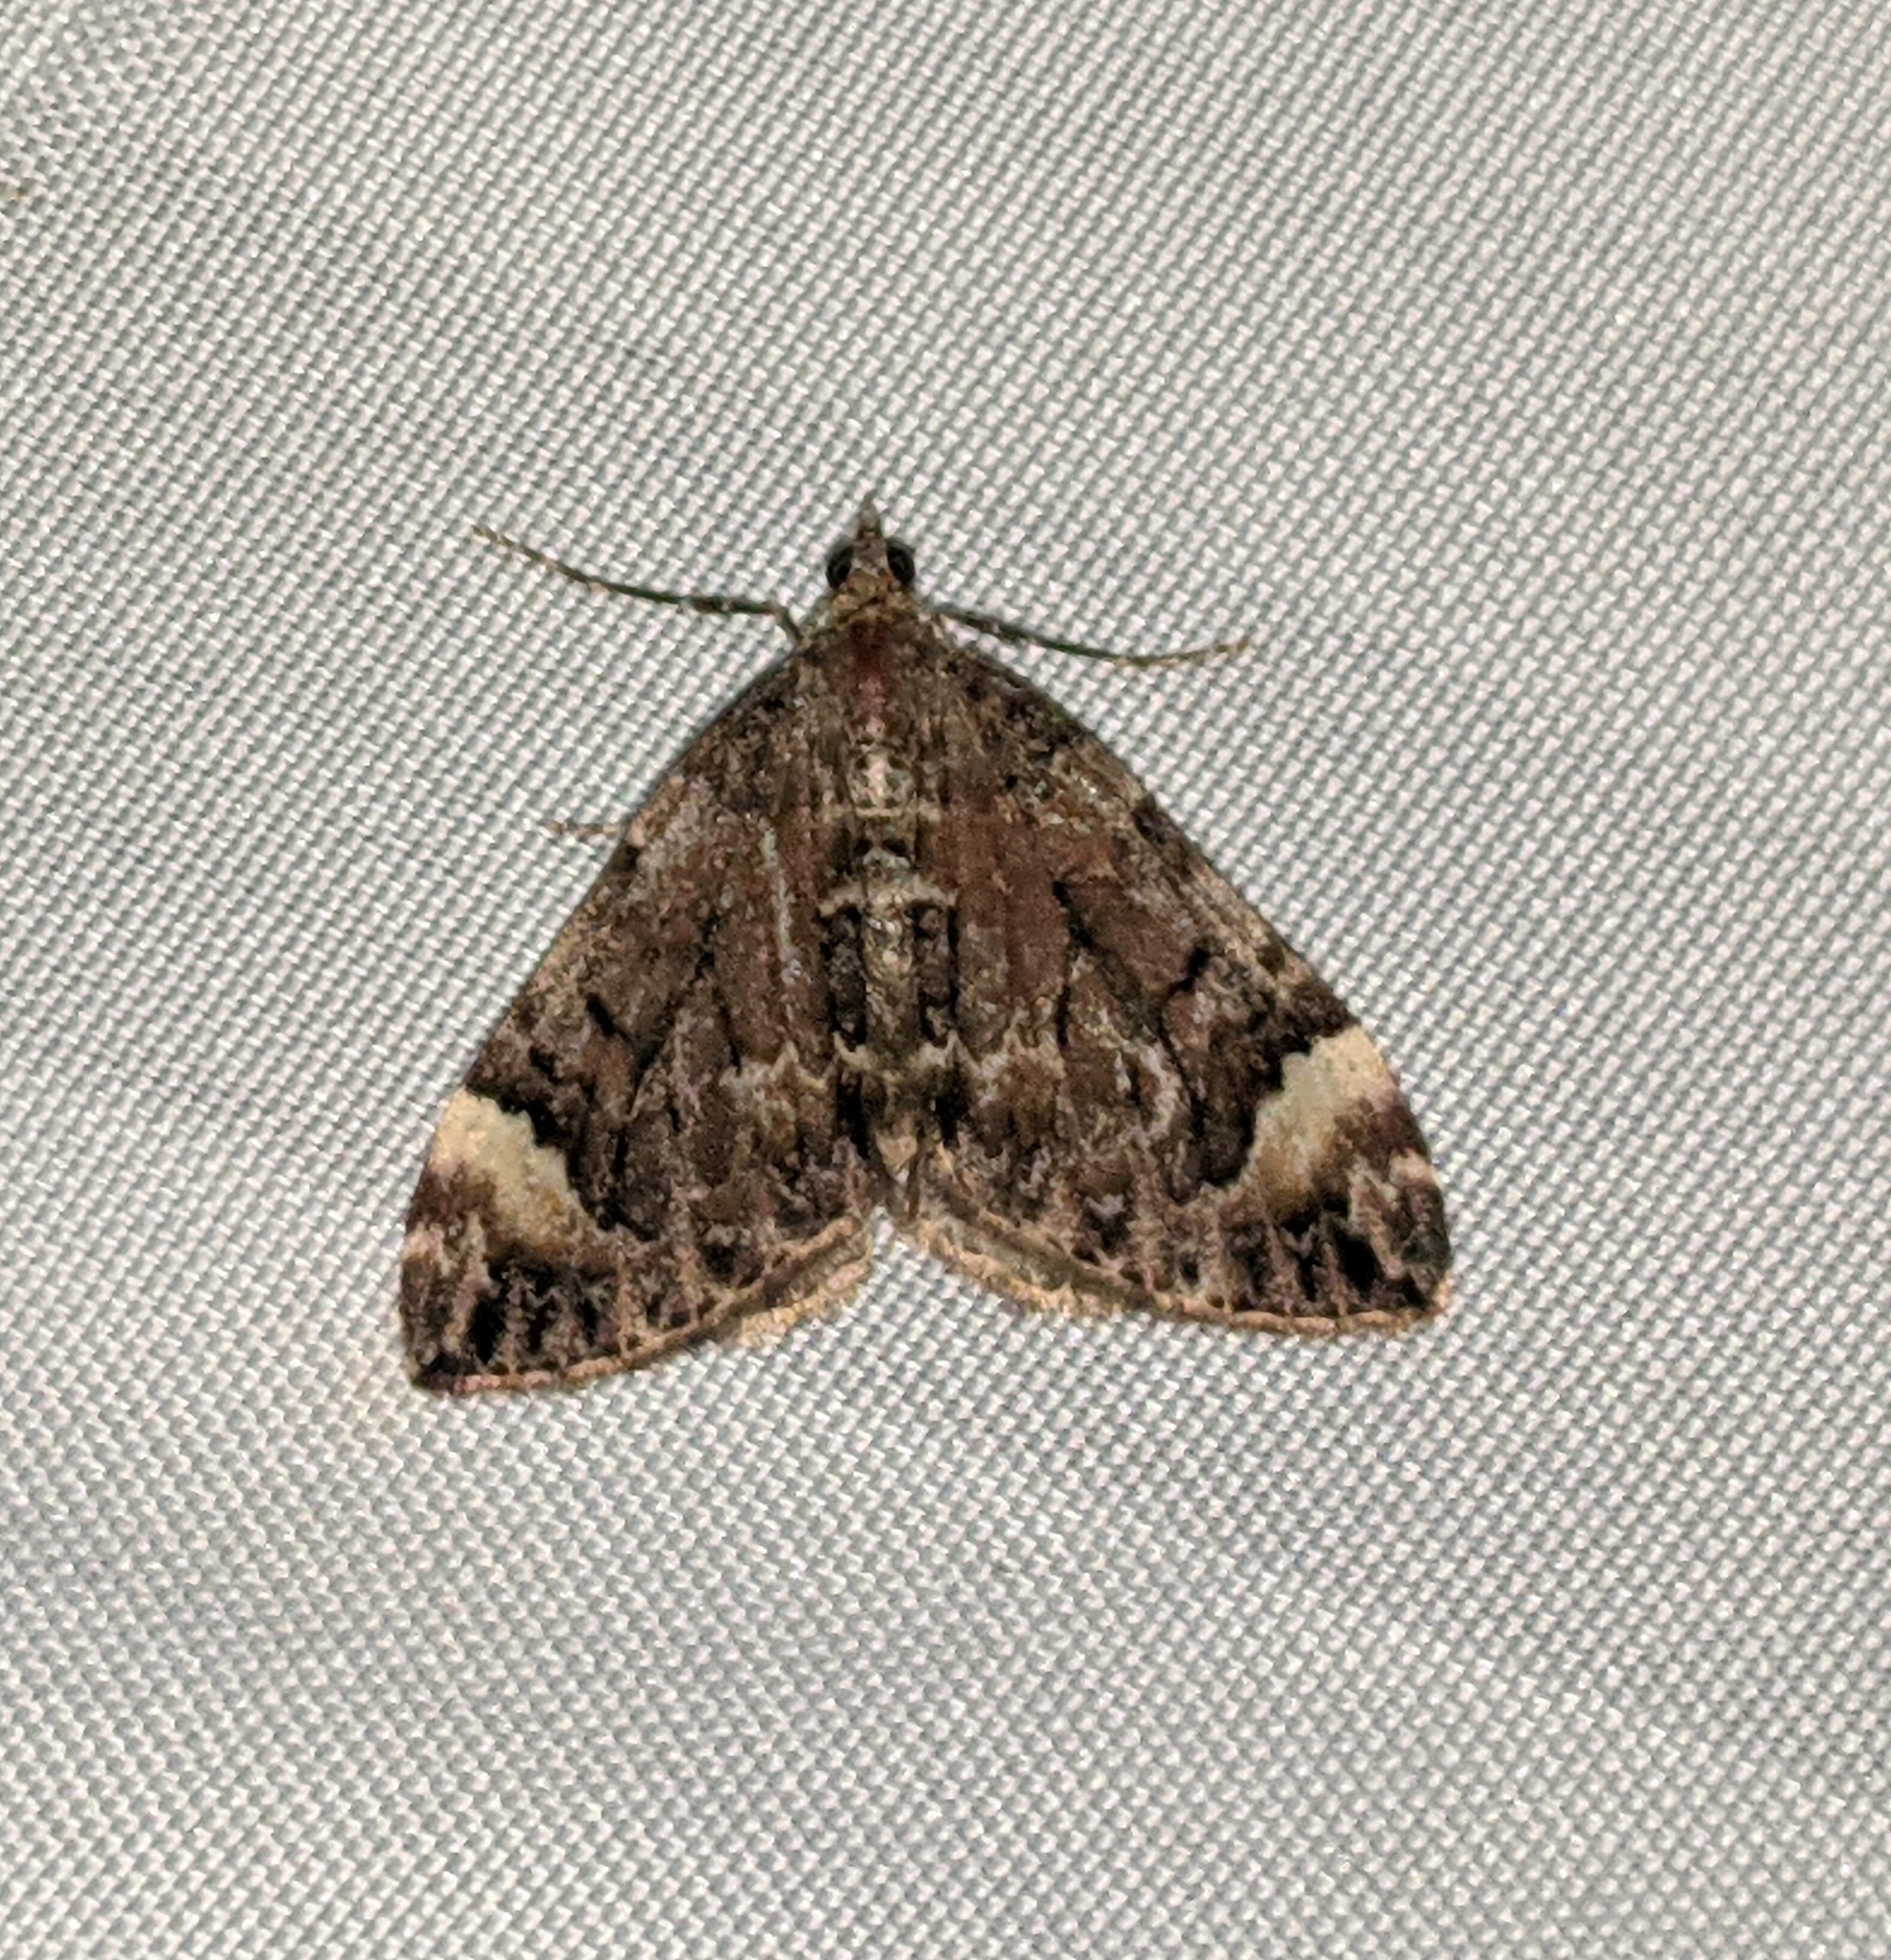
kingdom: Animalia
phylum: Arthropoda
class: Insecta
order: Lepidoptera
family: Geometridae
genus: Dysstroma
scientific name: Dysstroma citrata
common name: Dark marbled carpet
